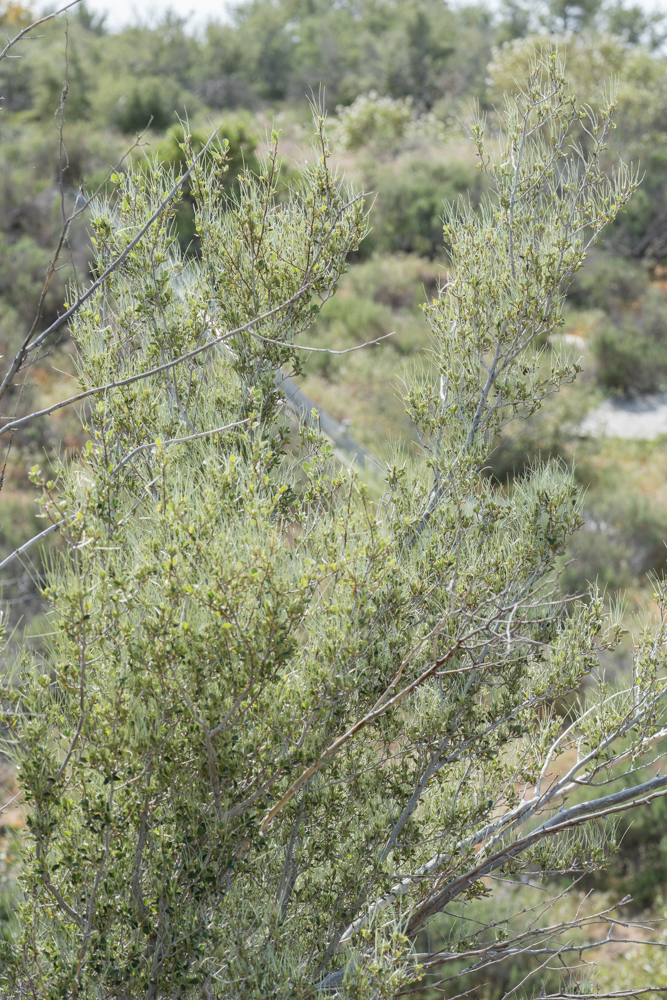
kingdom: Plantae
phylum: Tracheophyta
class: Magnoliopsida
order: Rosales
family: Rosaceae
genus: Cercocarpus
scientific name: Cercocarpus betuloides
